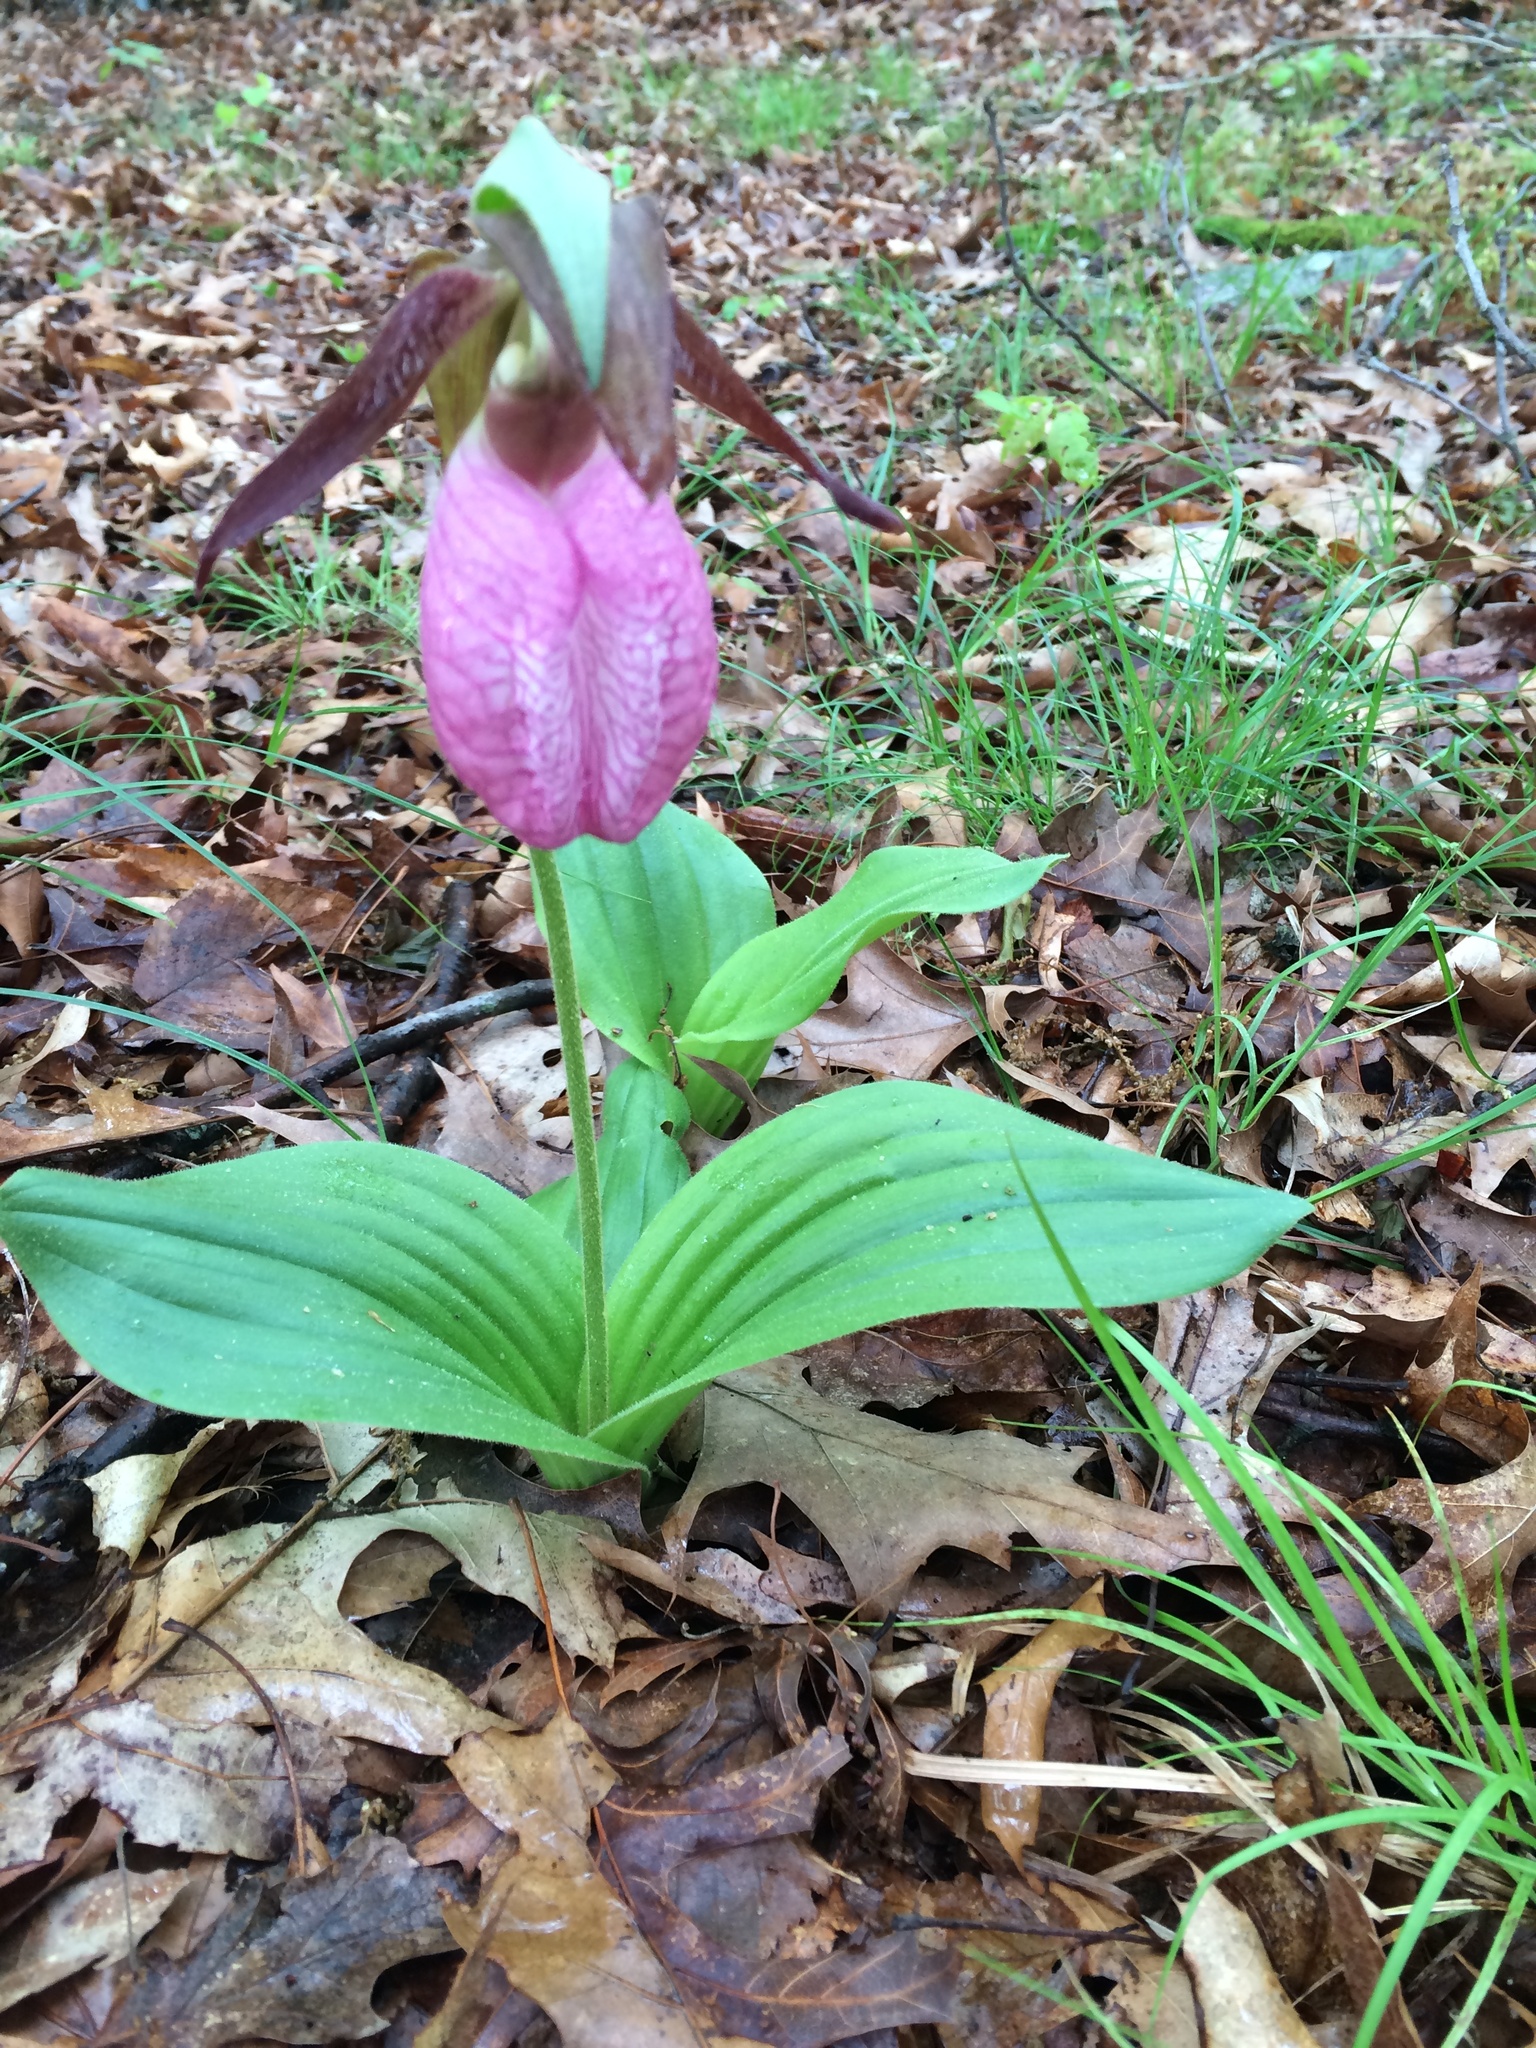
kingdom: Plantae
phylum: Tracheophyta
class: Liliopsida
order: Asparagales
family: Orchidaceae
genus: Cypripedium
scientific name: Cypripedium acaule
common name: Pink lady's-slipper
